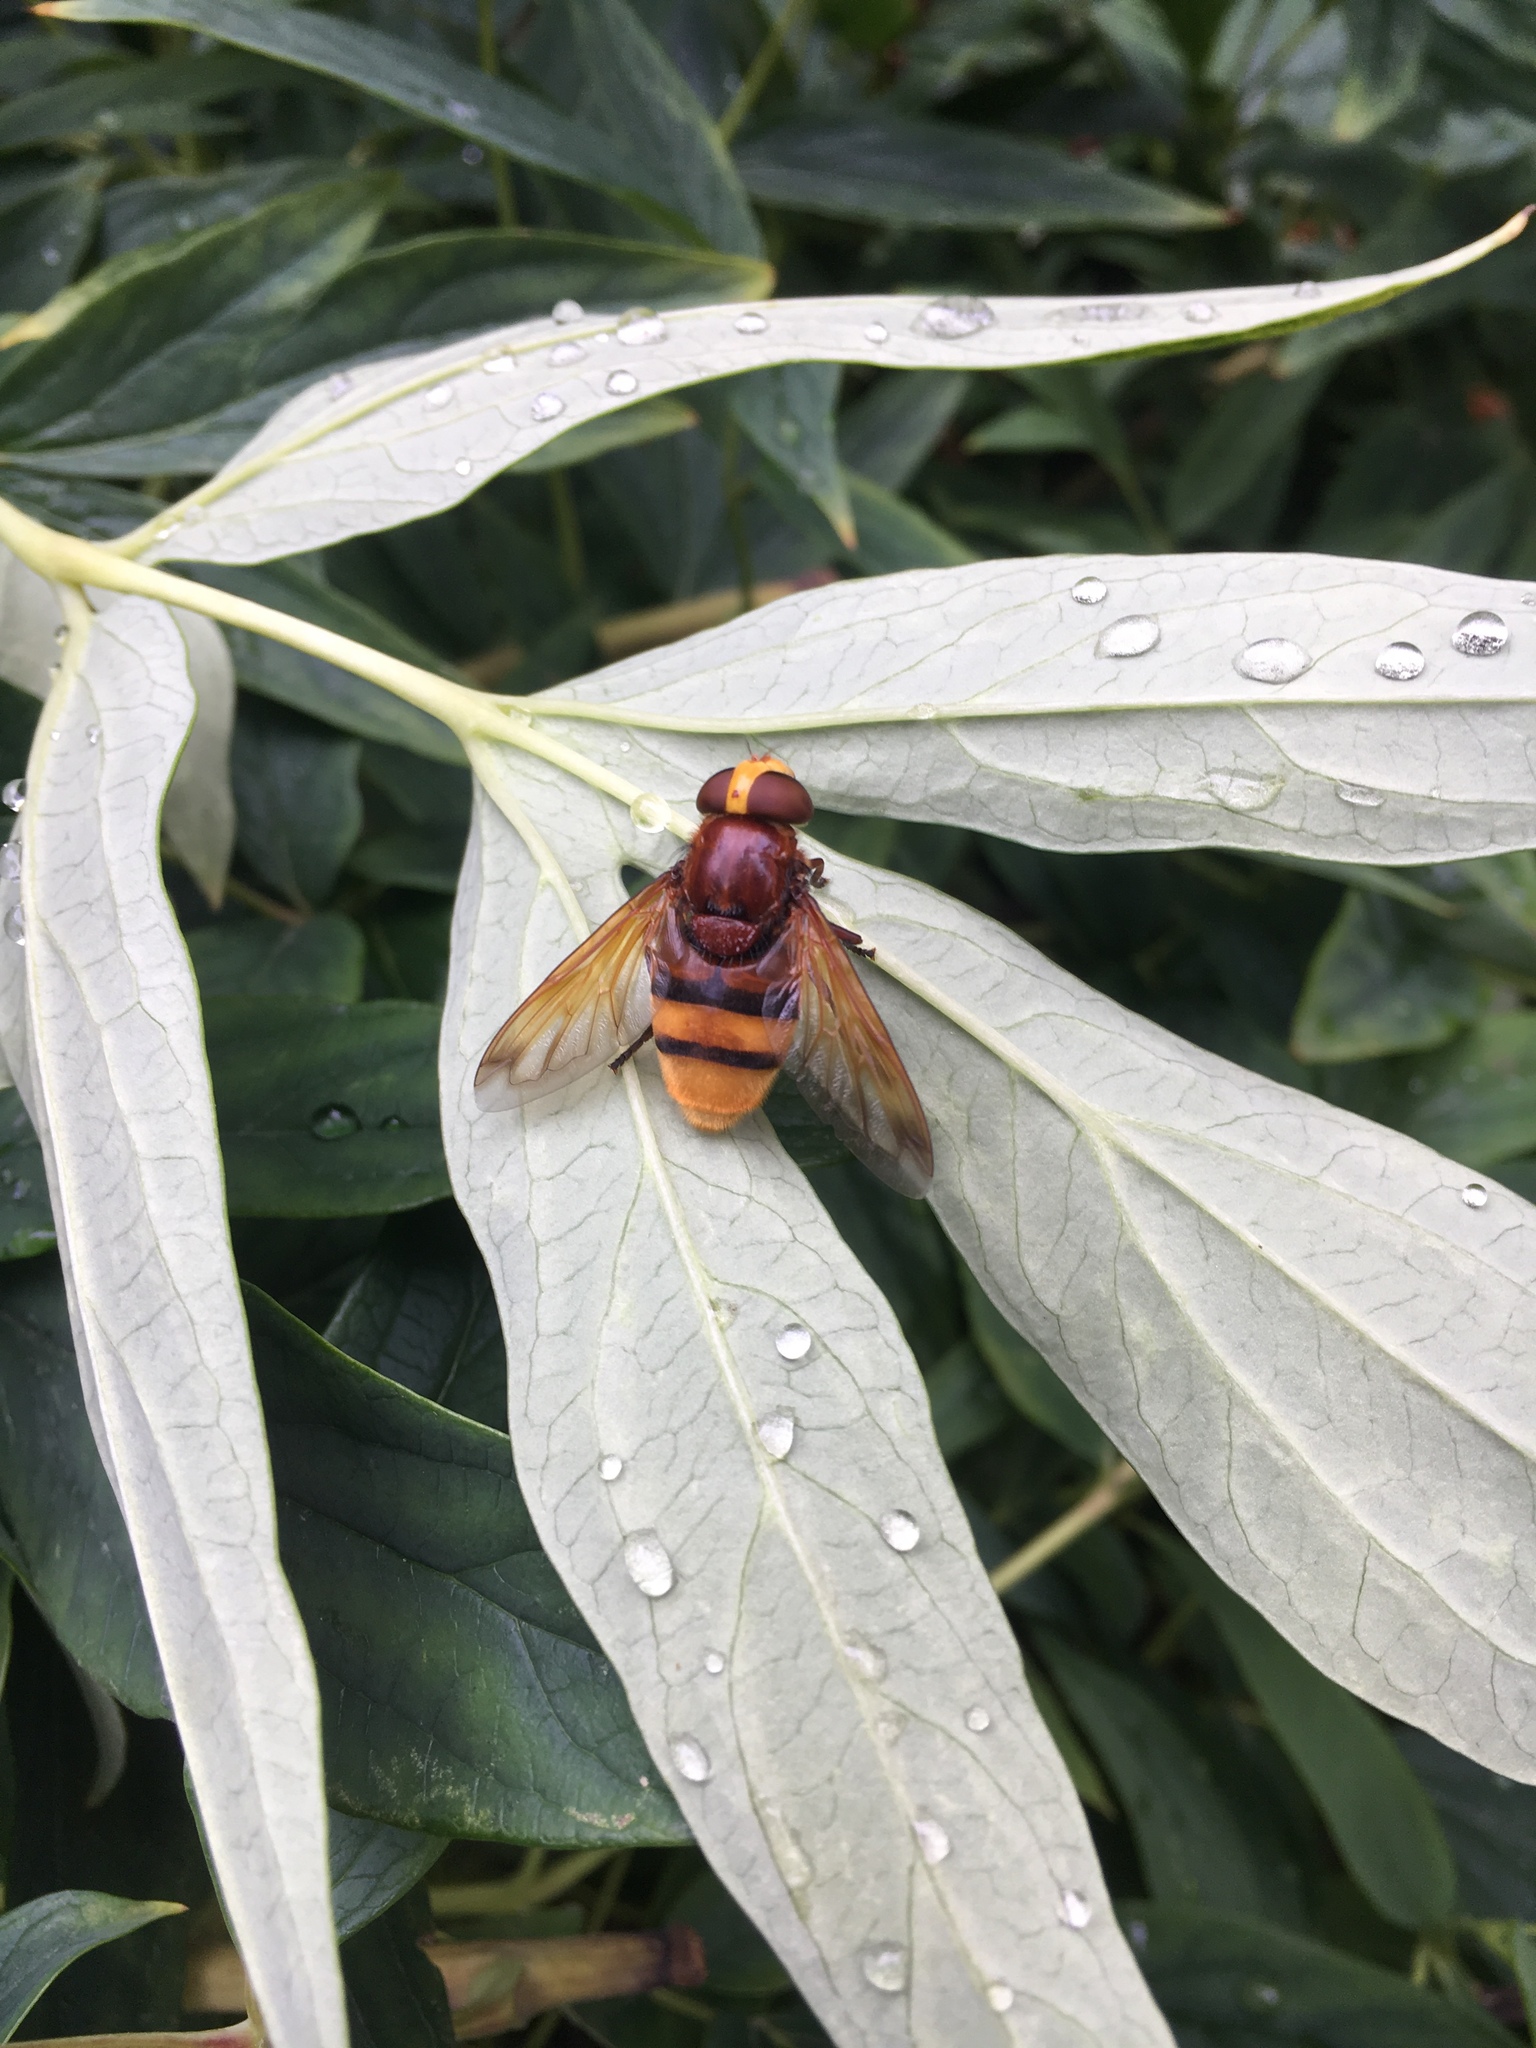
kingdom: Animalia
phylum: Arthropoda
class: Insecta
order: Diptera
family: Syrphidae
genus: Volucella
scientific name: Volucella zonaria
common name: Hornet hoverfly
